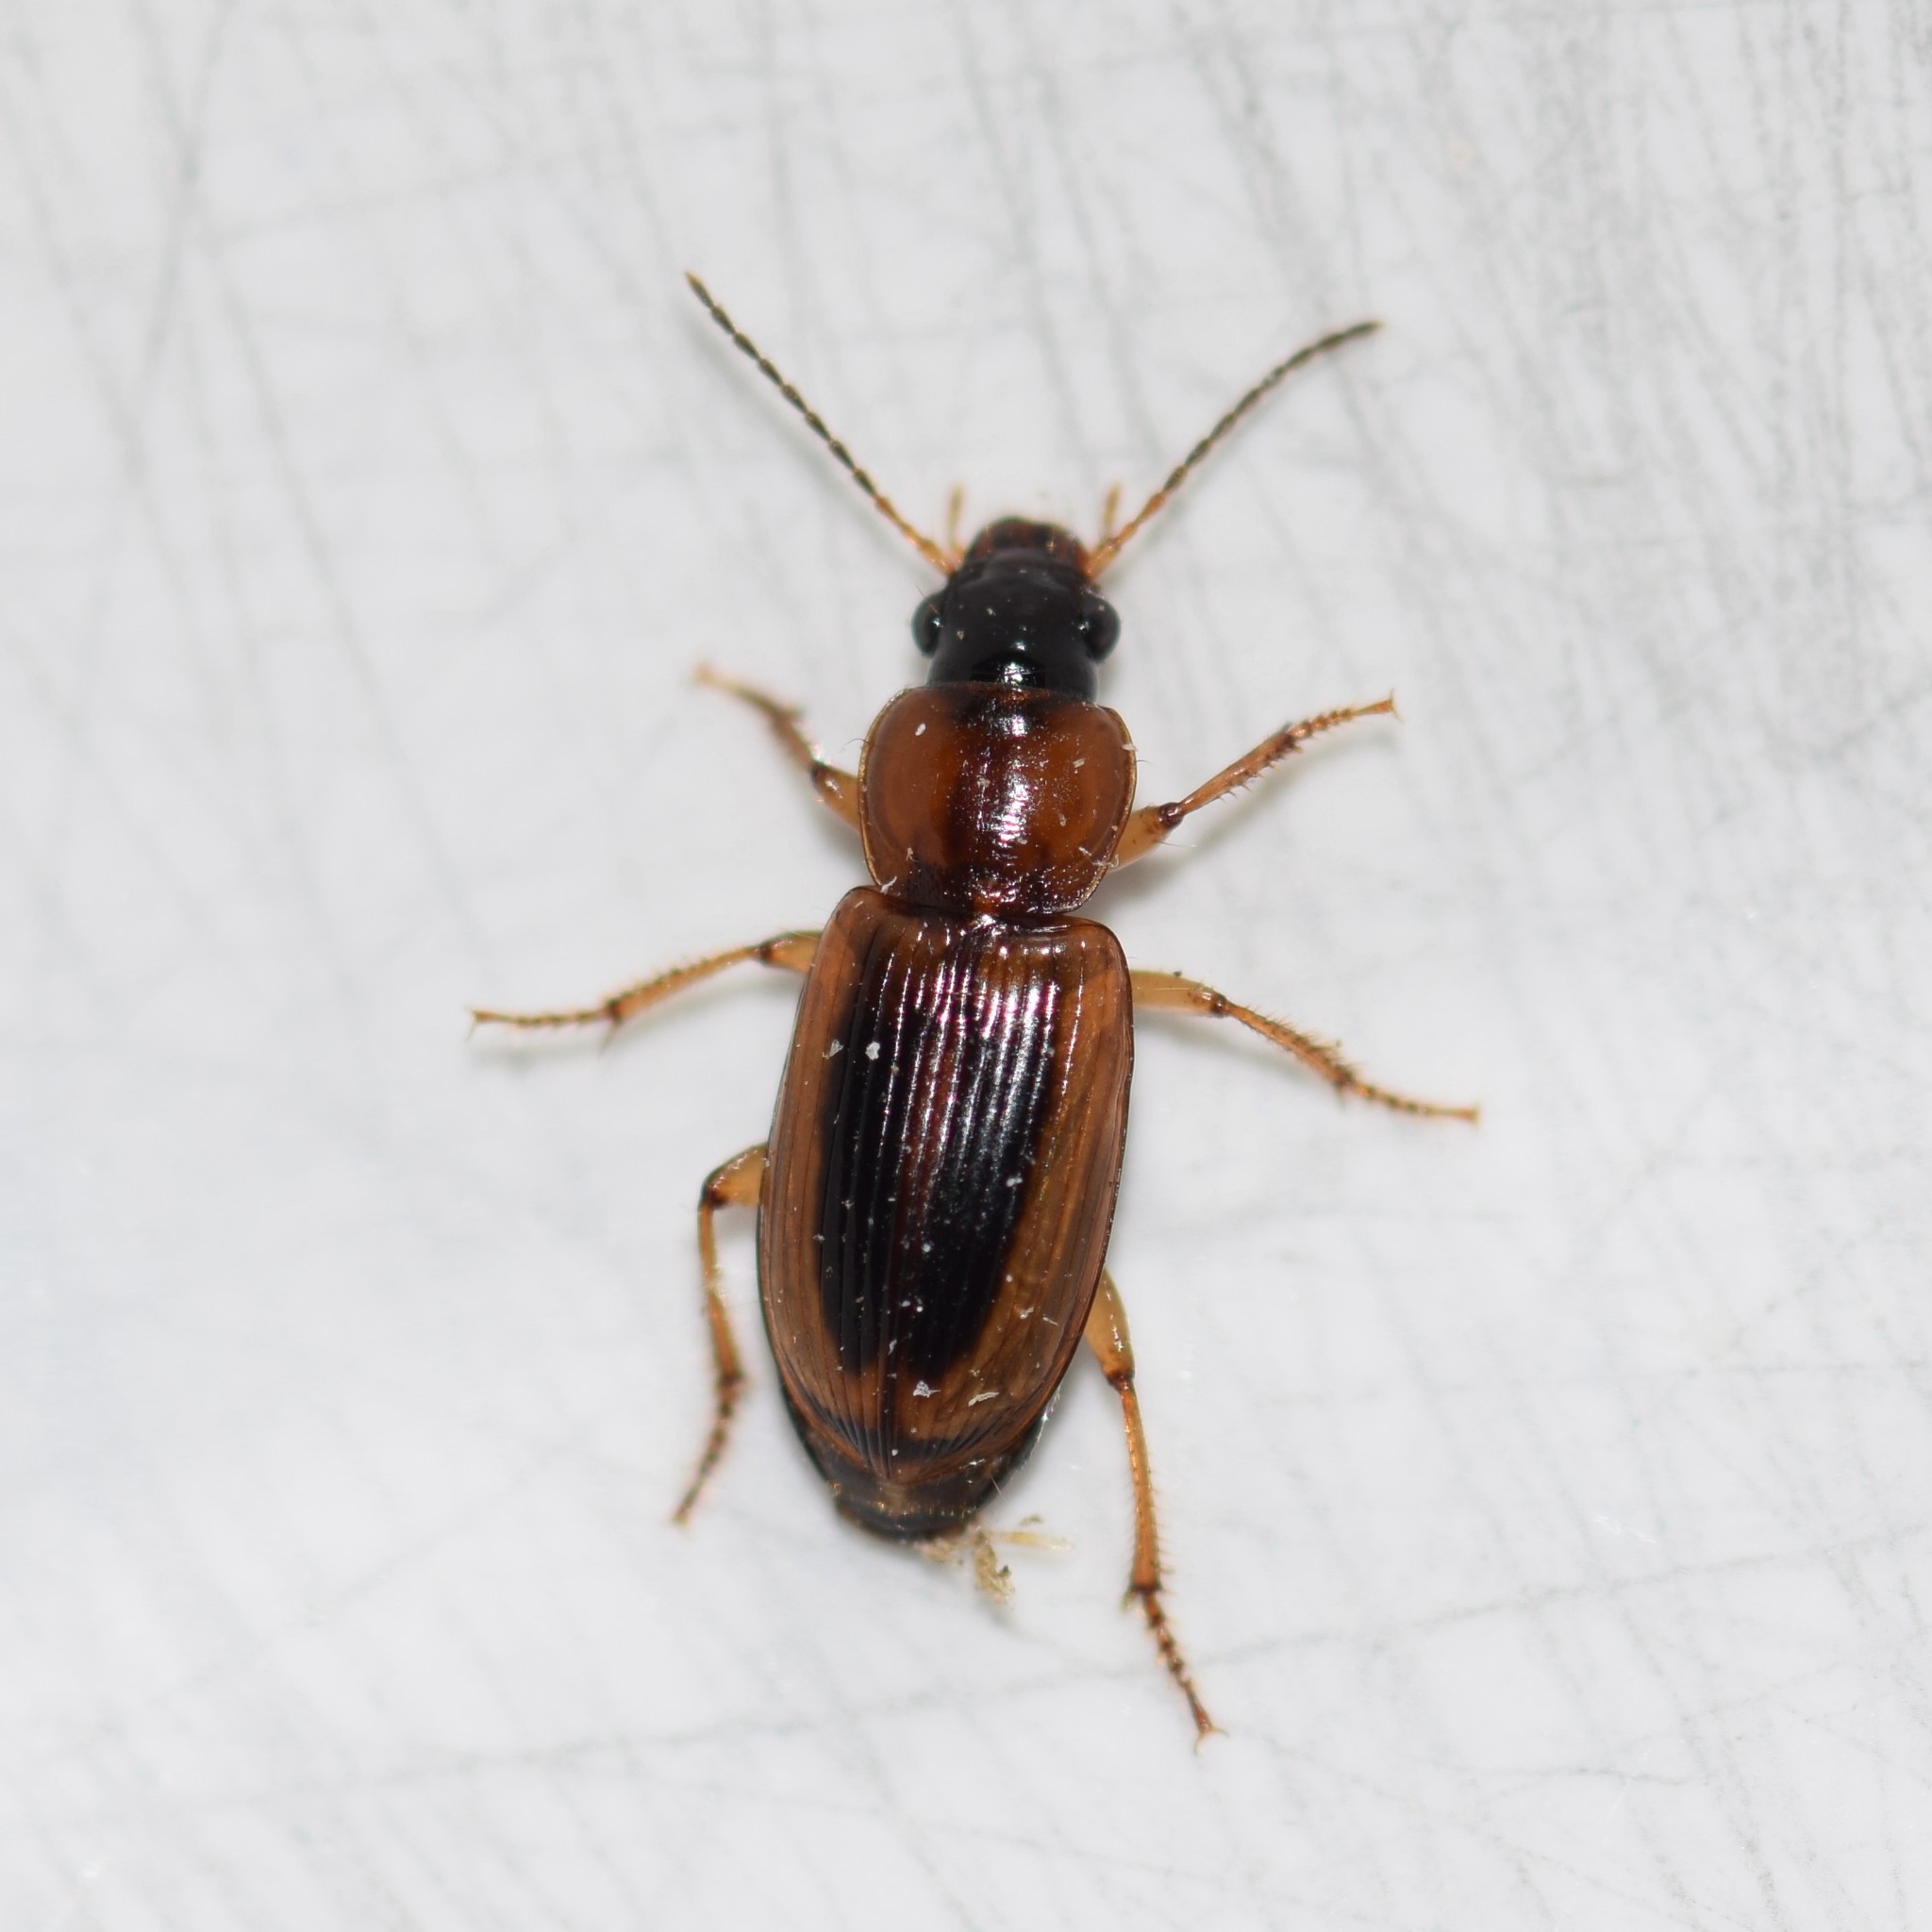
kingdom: Animalia
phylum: Arthropoda
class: Insecta
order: Coleoptera
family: Carabidae
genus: Stenolophus
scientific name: Stenolophus comma
